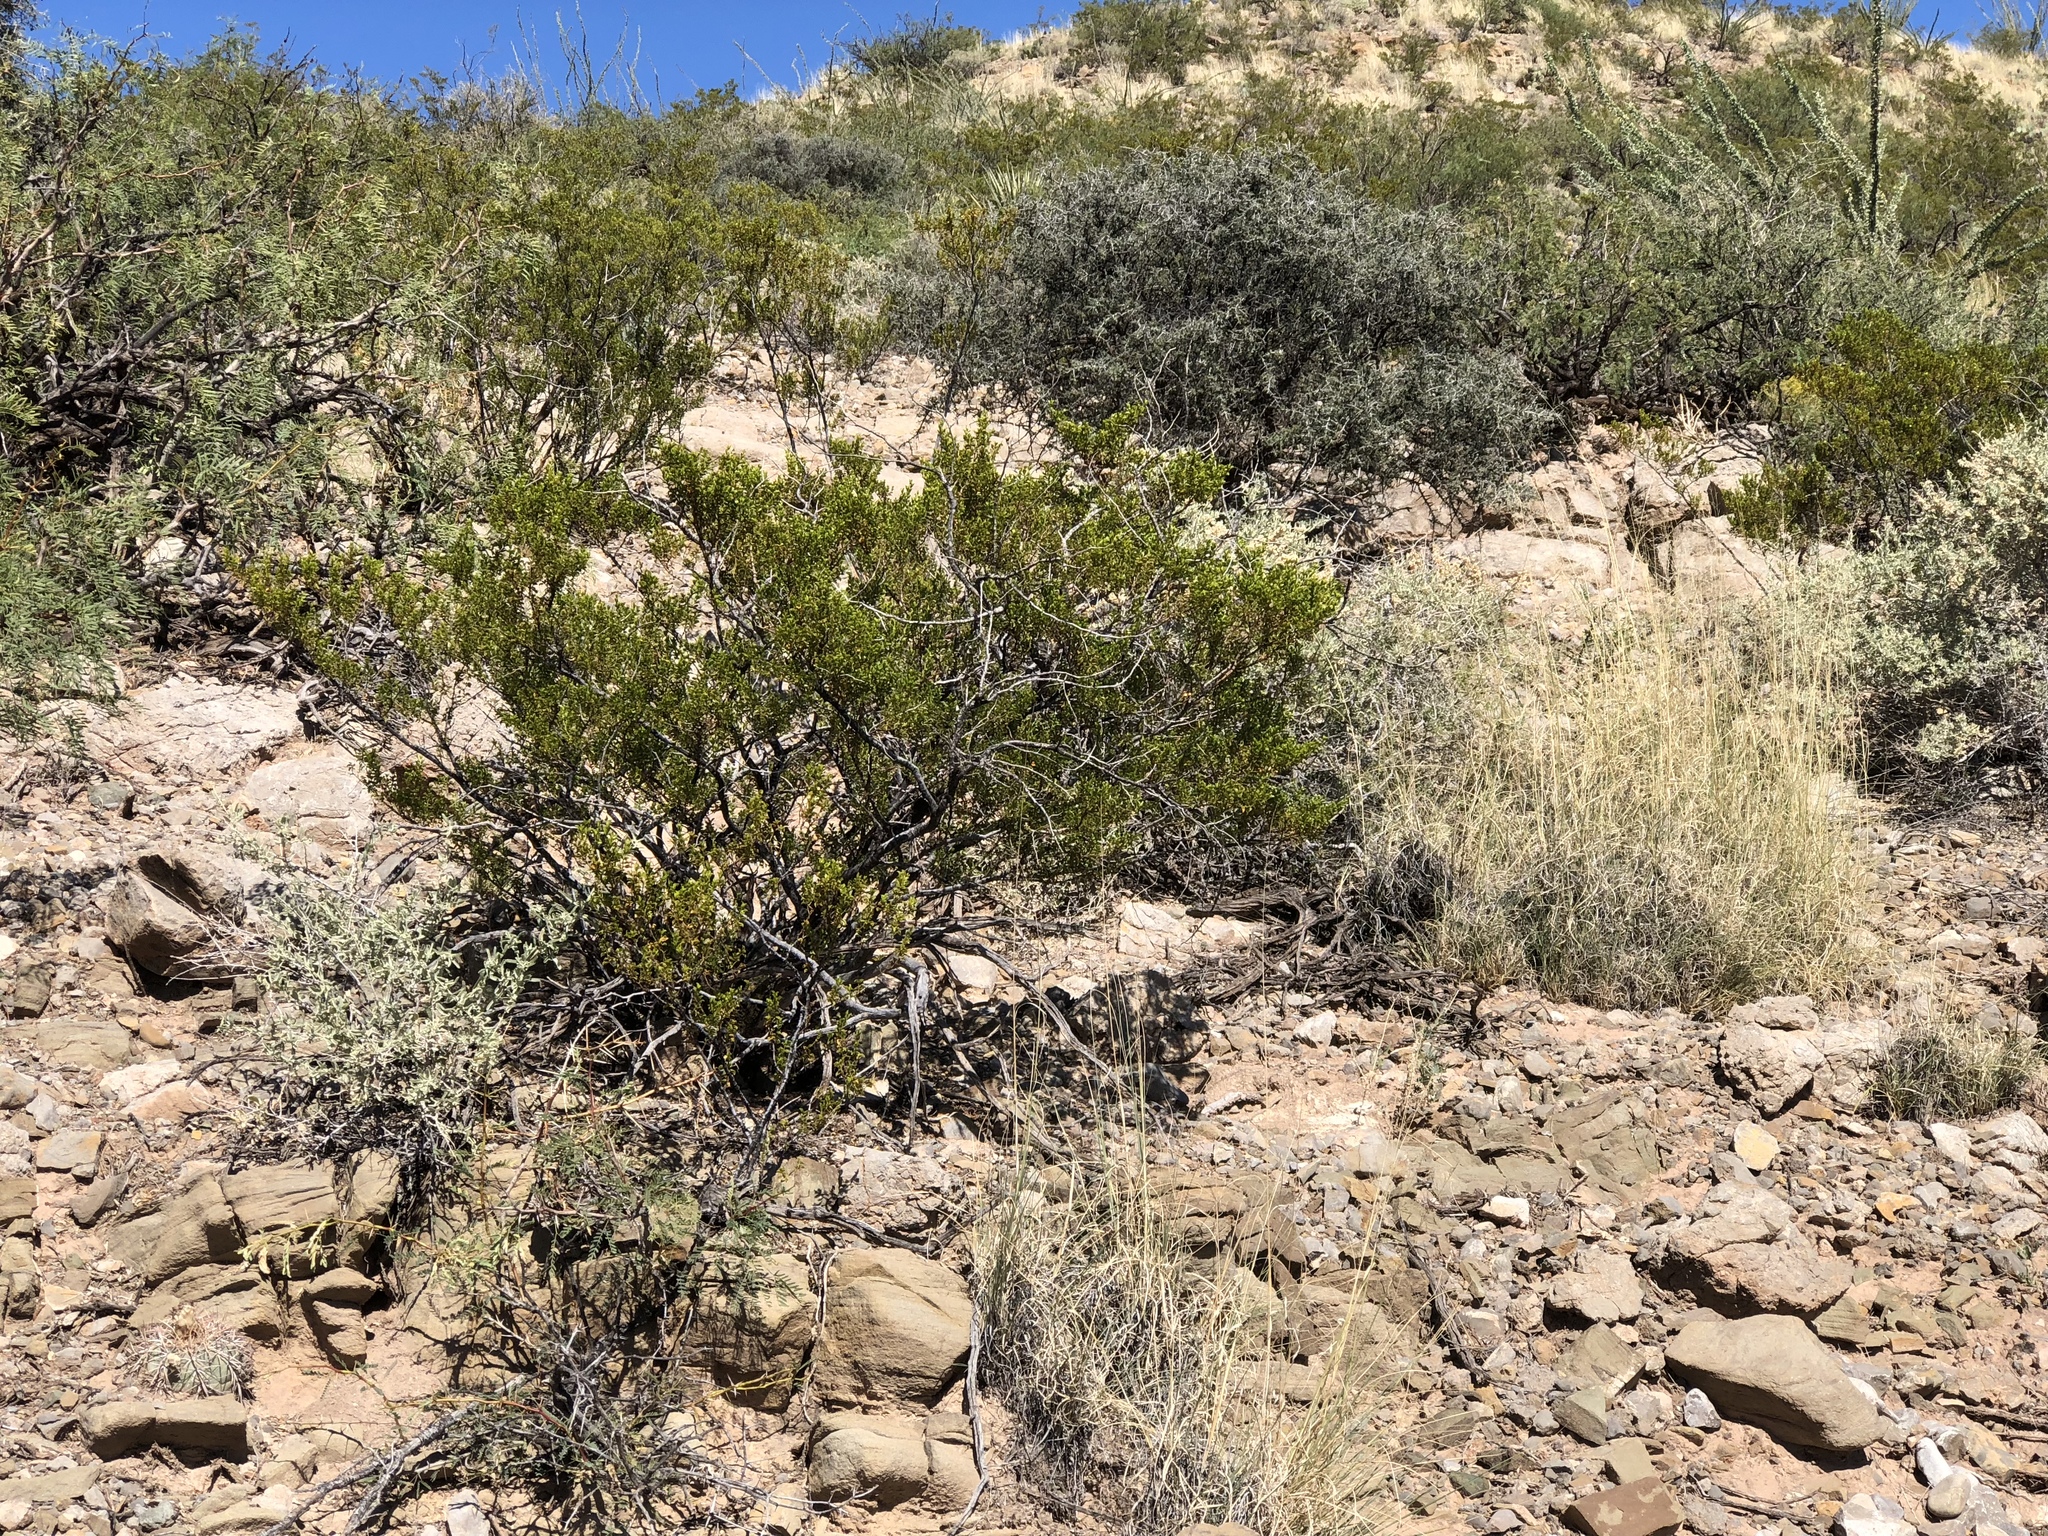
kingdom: Plantae
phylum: Tracheophyta
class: Magnoliopsida
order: Zygophyllales
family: Zygophyllaceae
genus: Larrea
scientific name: Larrea tridentata
